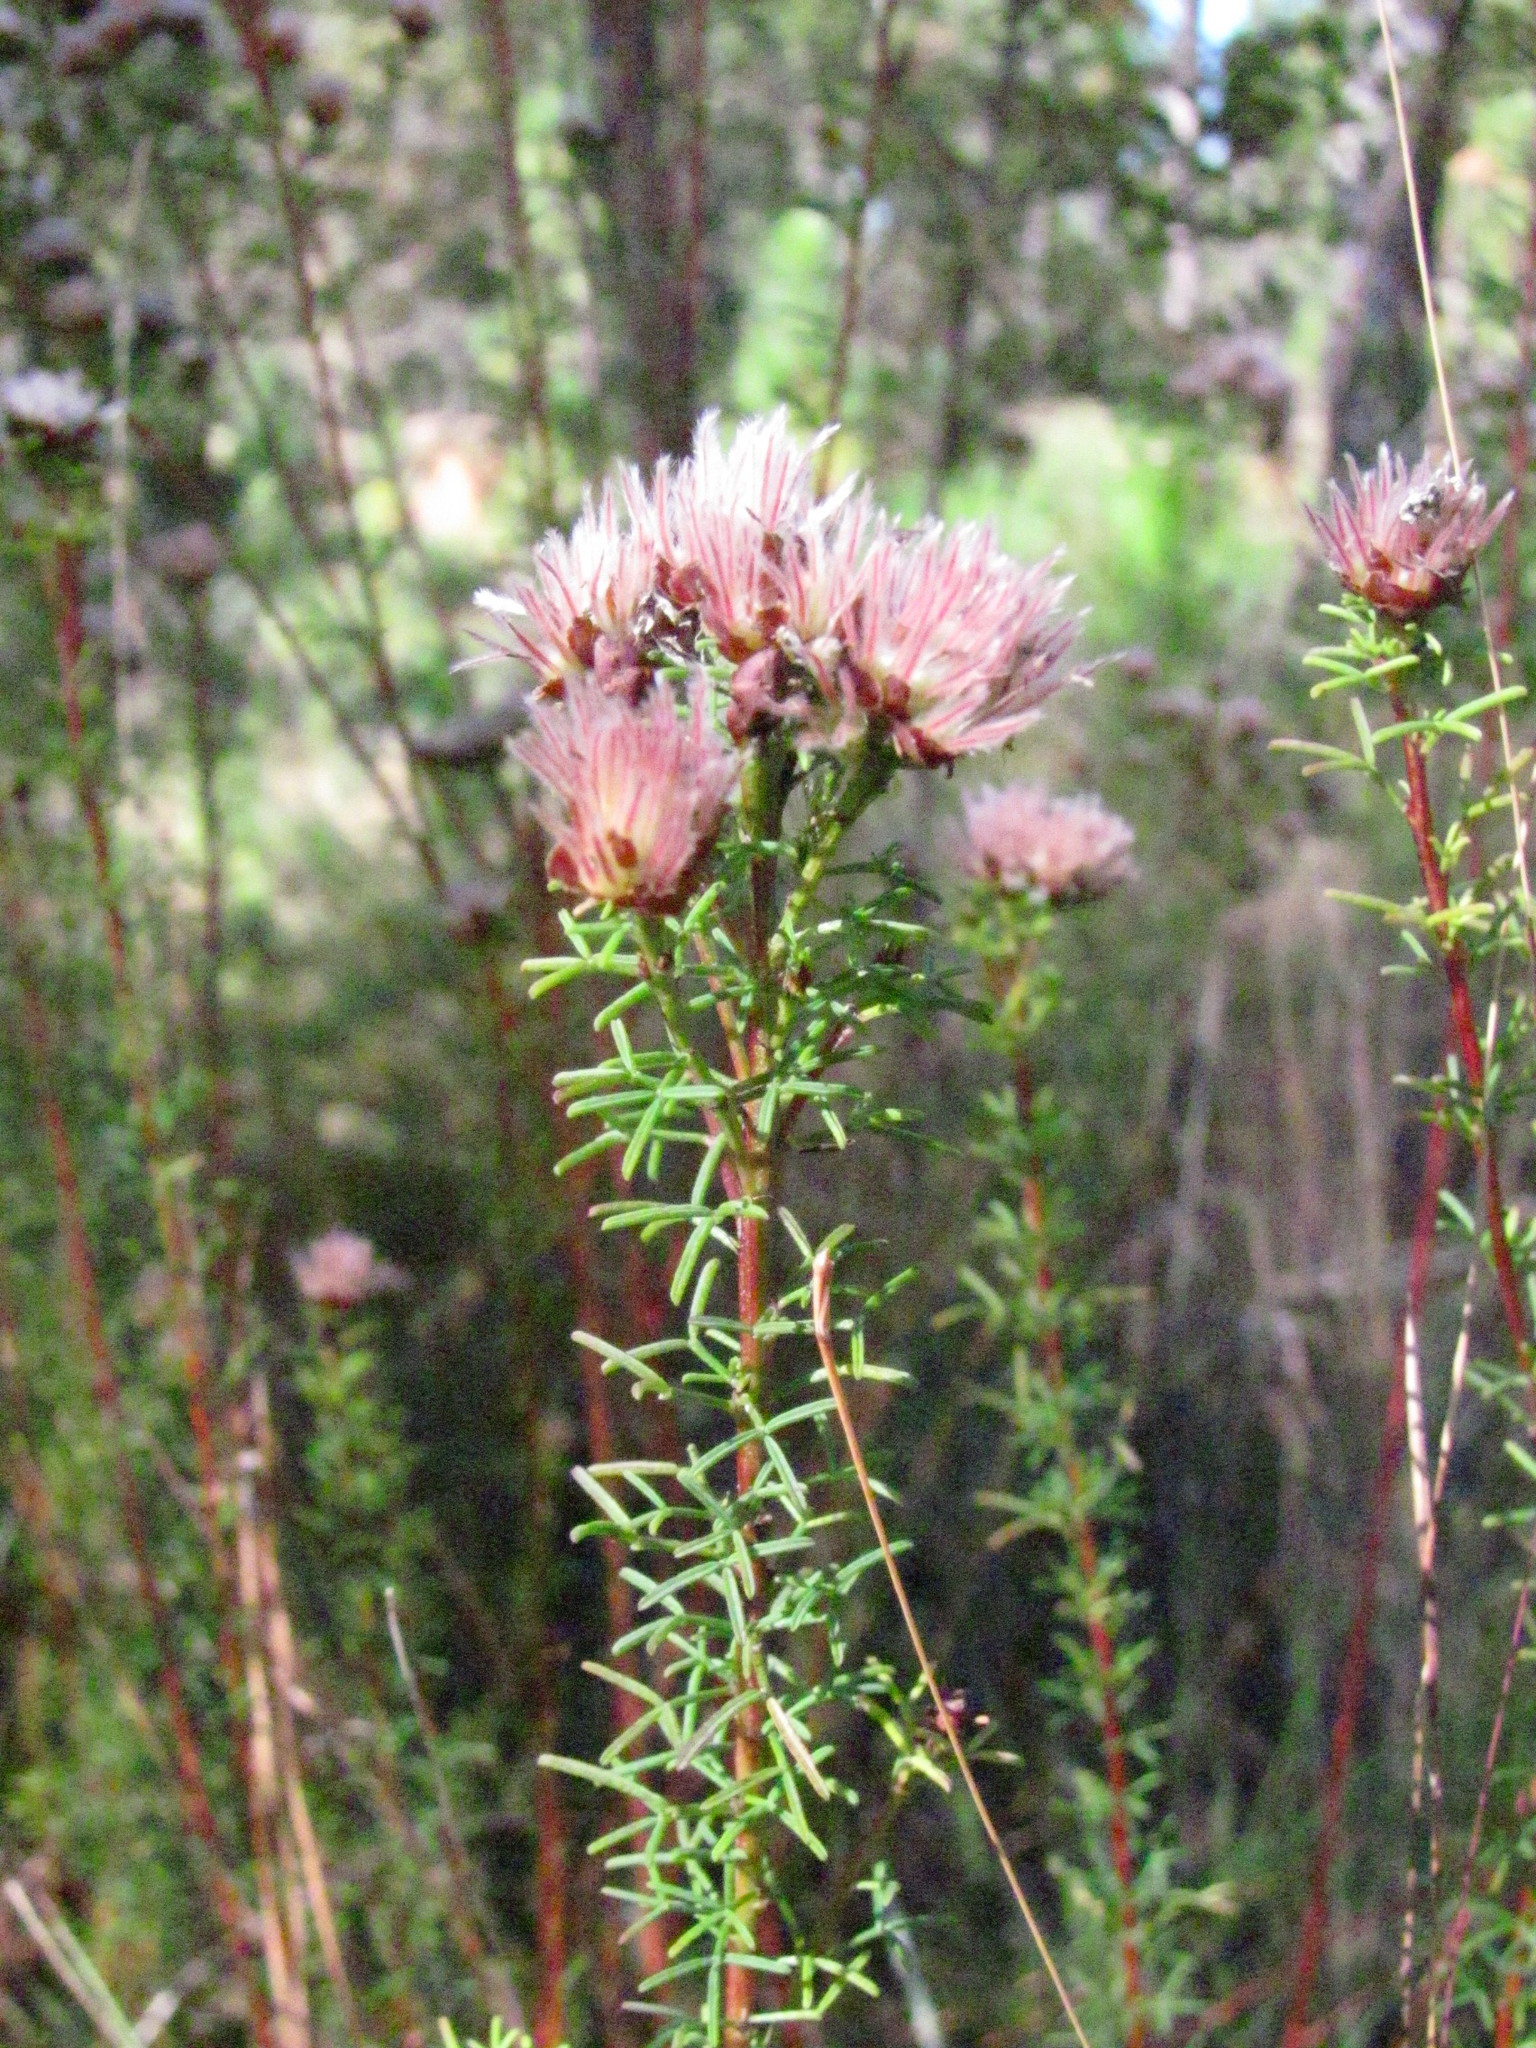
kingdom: Plantae
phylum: Tracheophyta
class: Magnoliopsida
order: Fabales
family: Fabaceae
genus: Dalea
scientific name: Dalea pinnata
